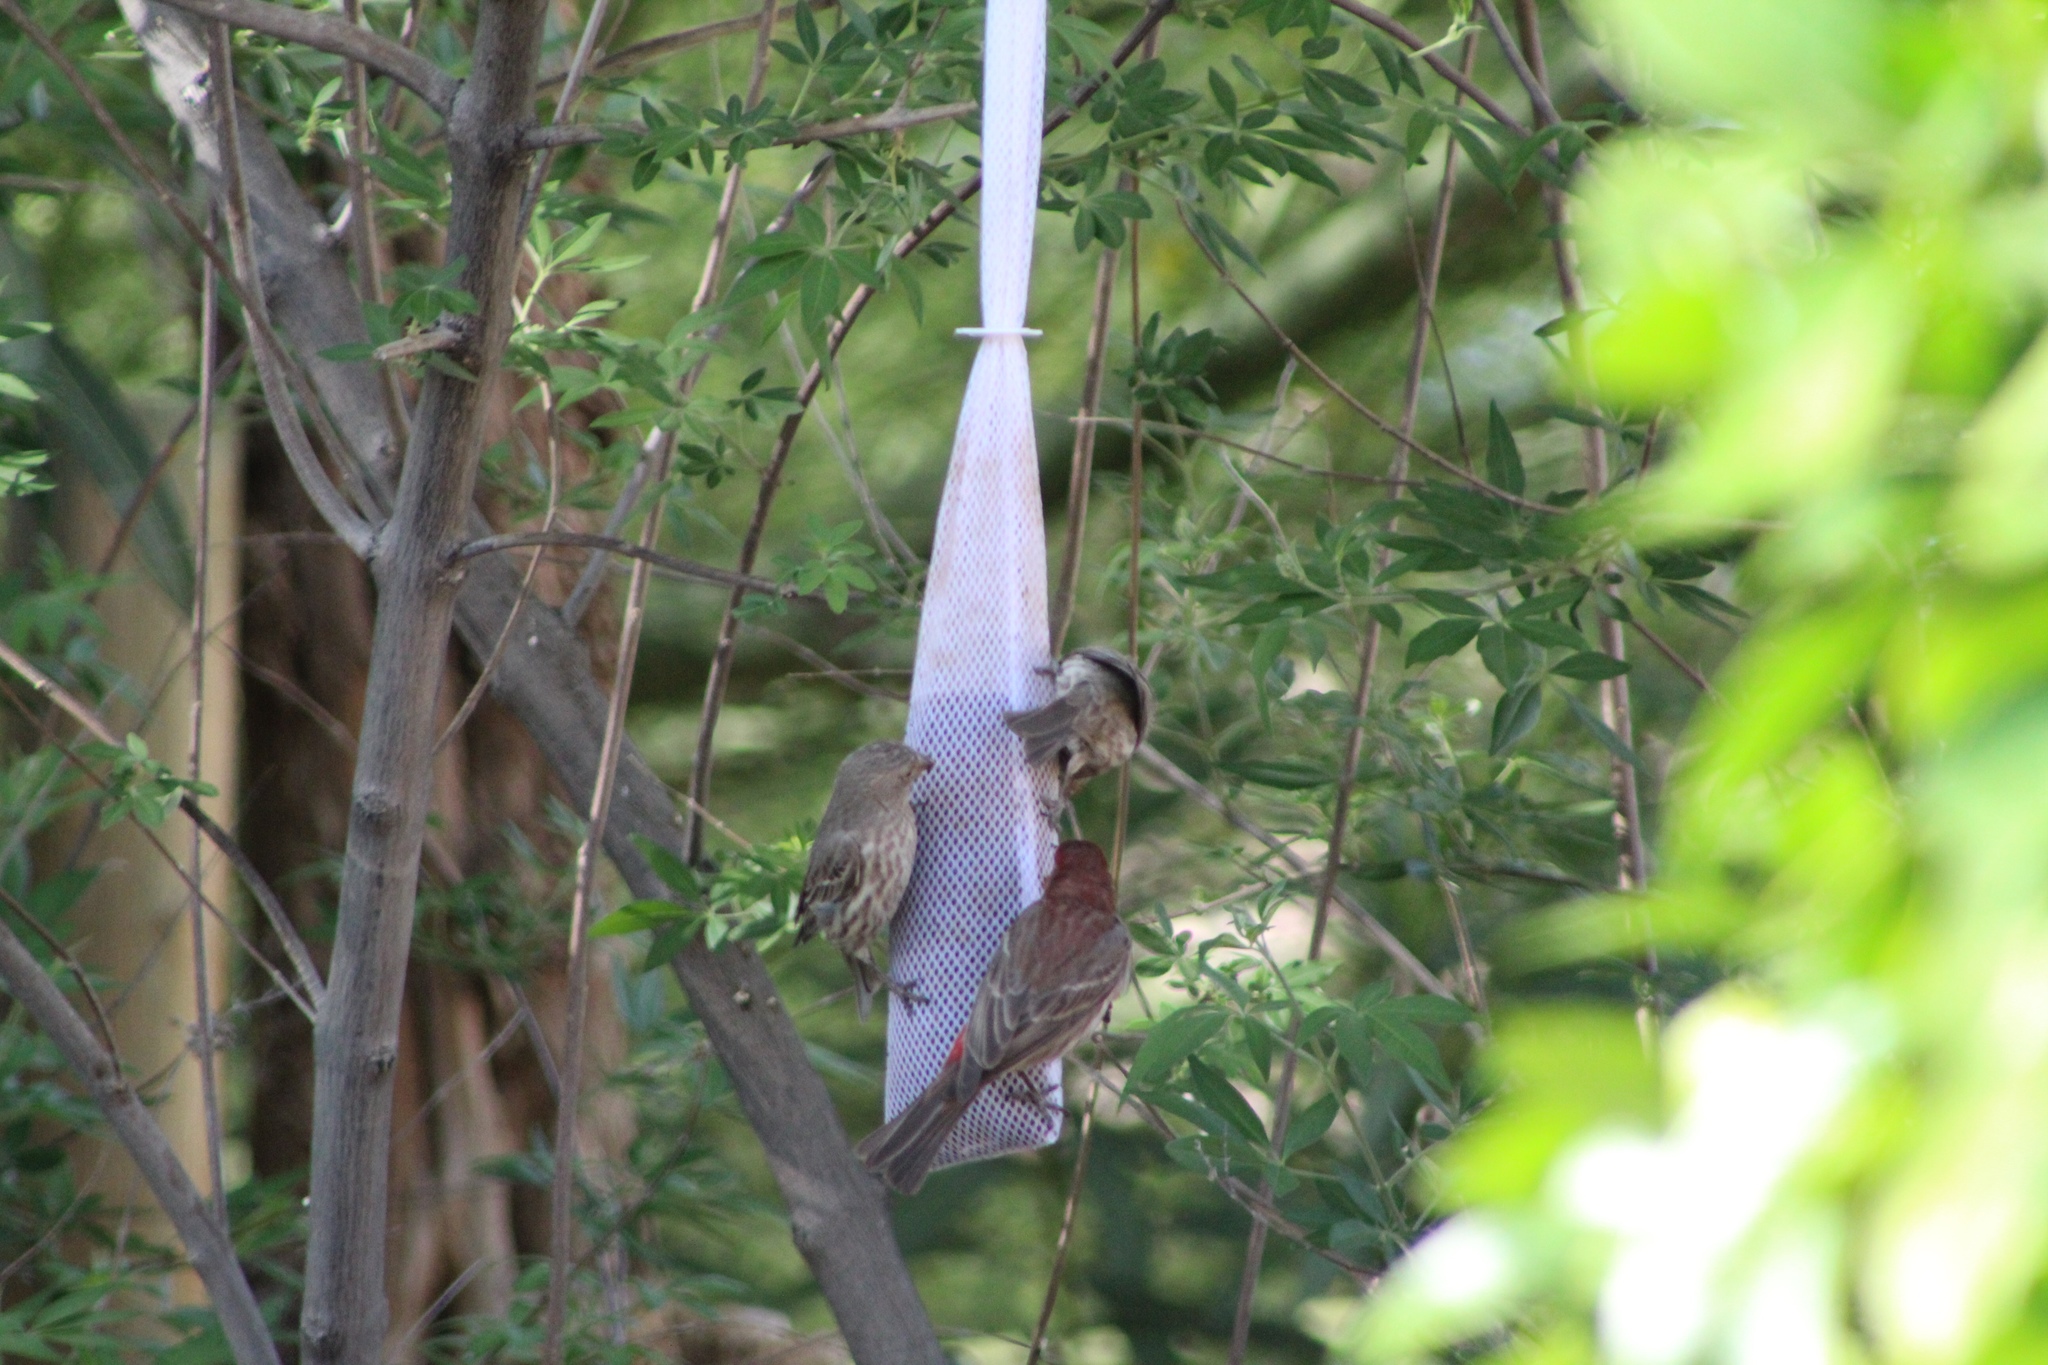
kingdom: Animalia
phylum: Chordata
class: Aves
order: Passeriformes
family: Fringillidae
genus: Haemorhous
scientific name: Haemorhous mexicanus
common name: House finch
